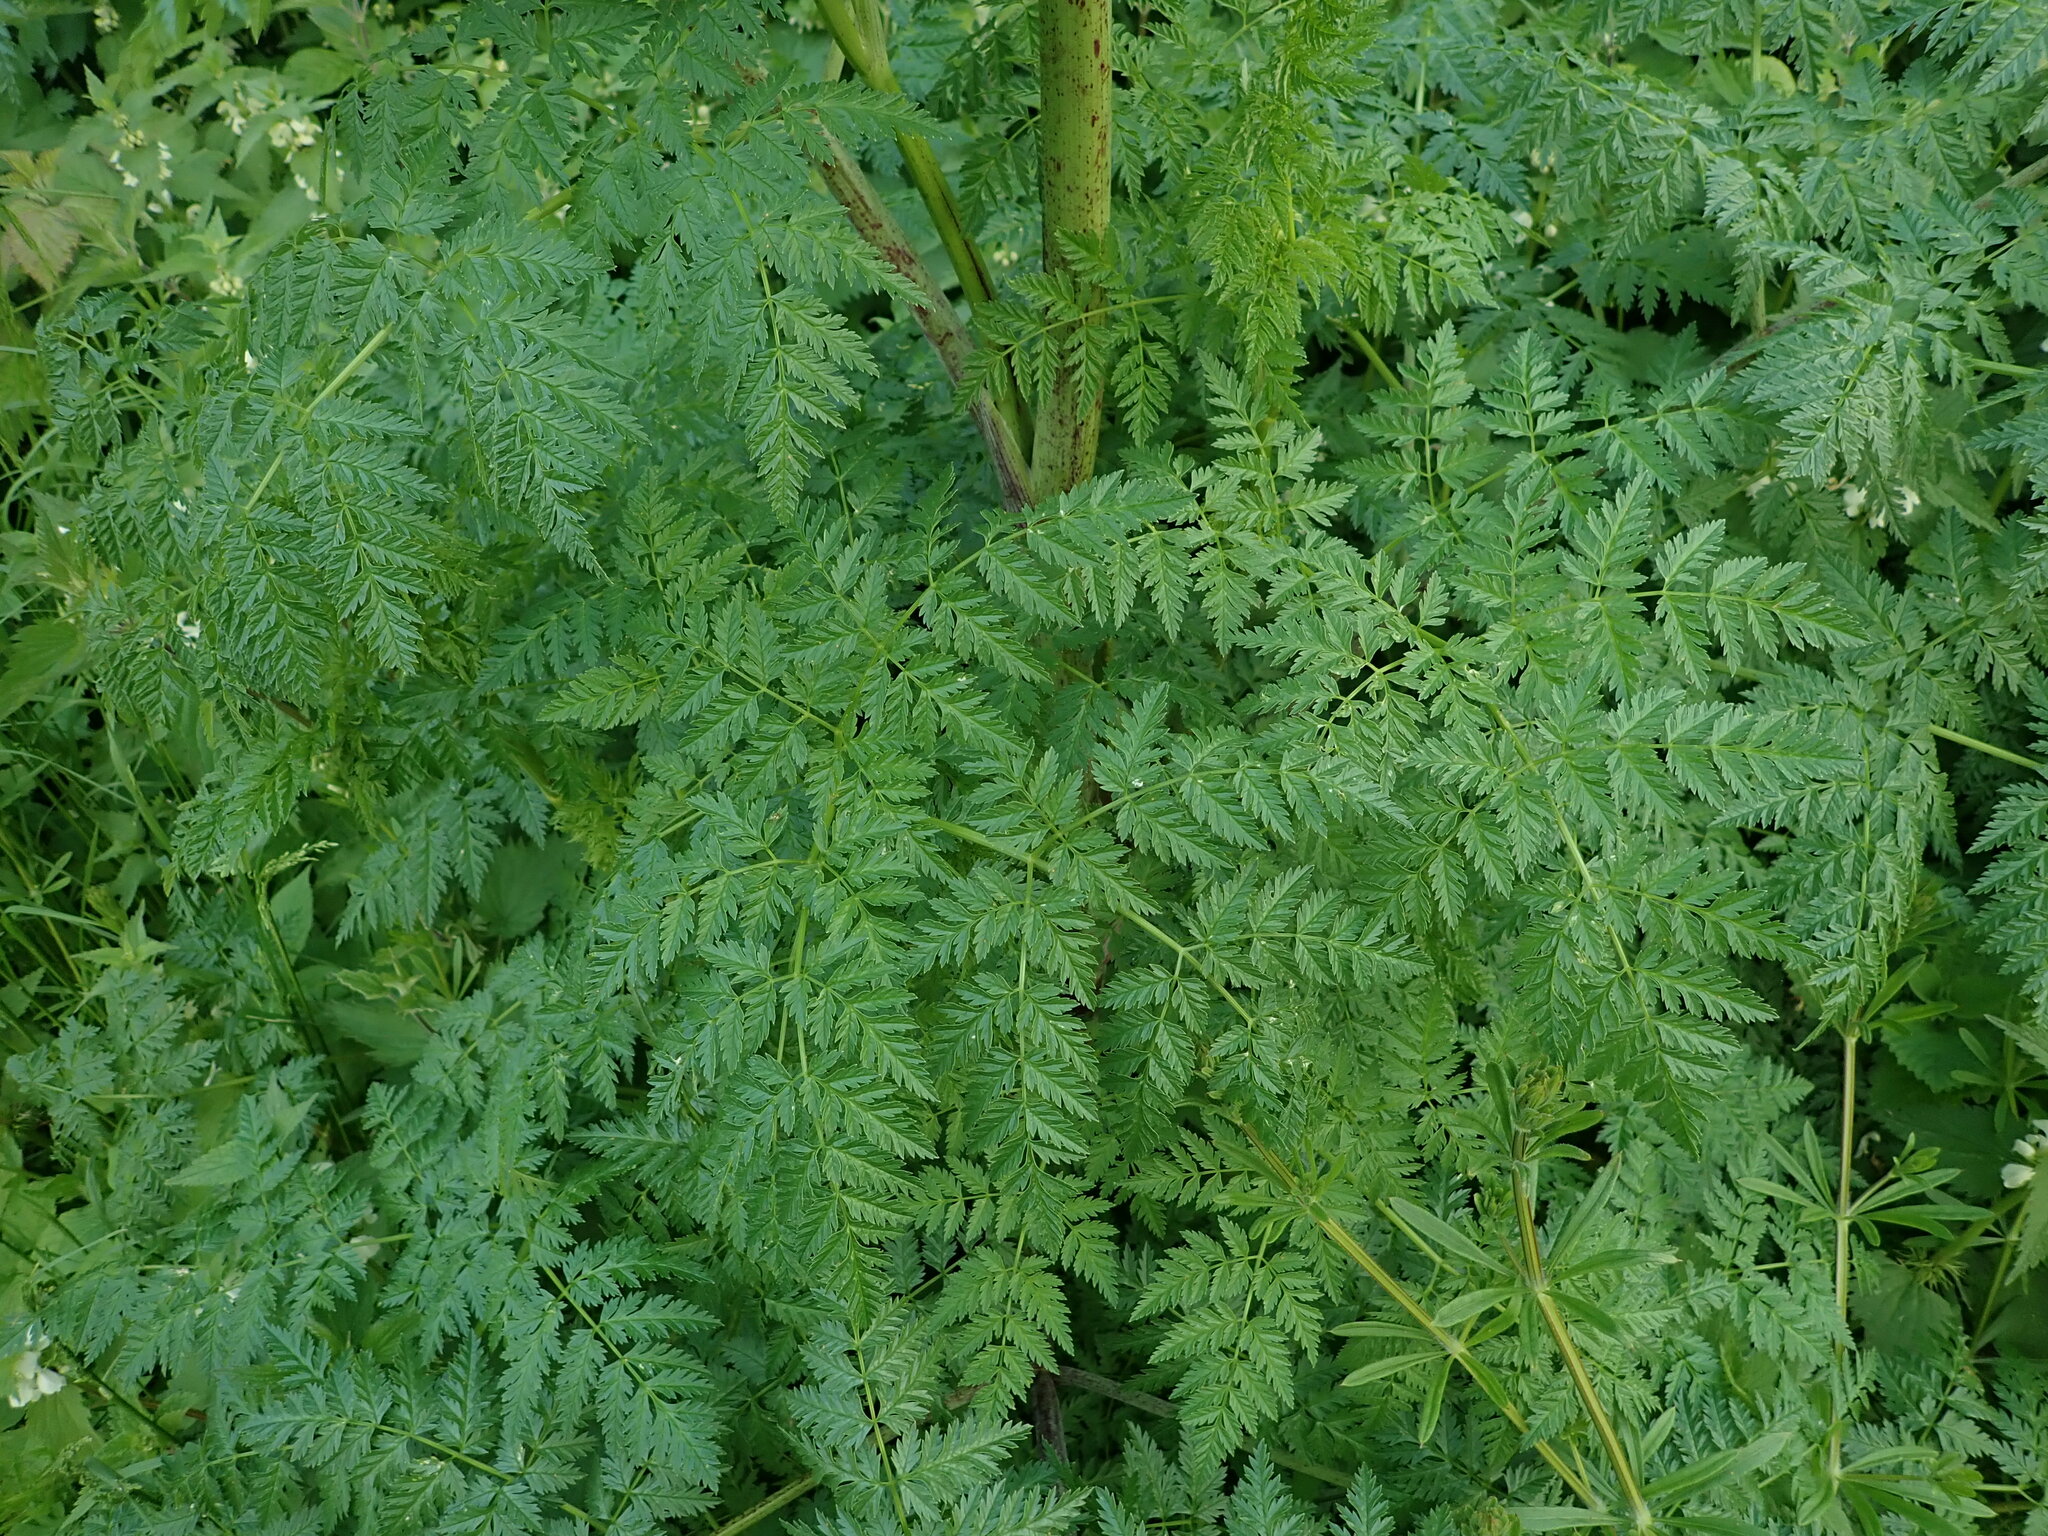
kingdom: Plantae
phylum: Tracheophyta
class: Magnoliopsida
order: Apiales
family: Apiaceae
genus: Conium
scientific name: Conium maculatum
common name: Hemlock
